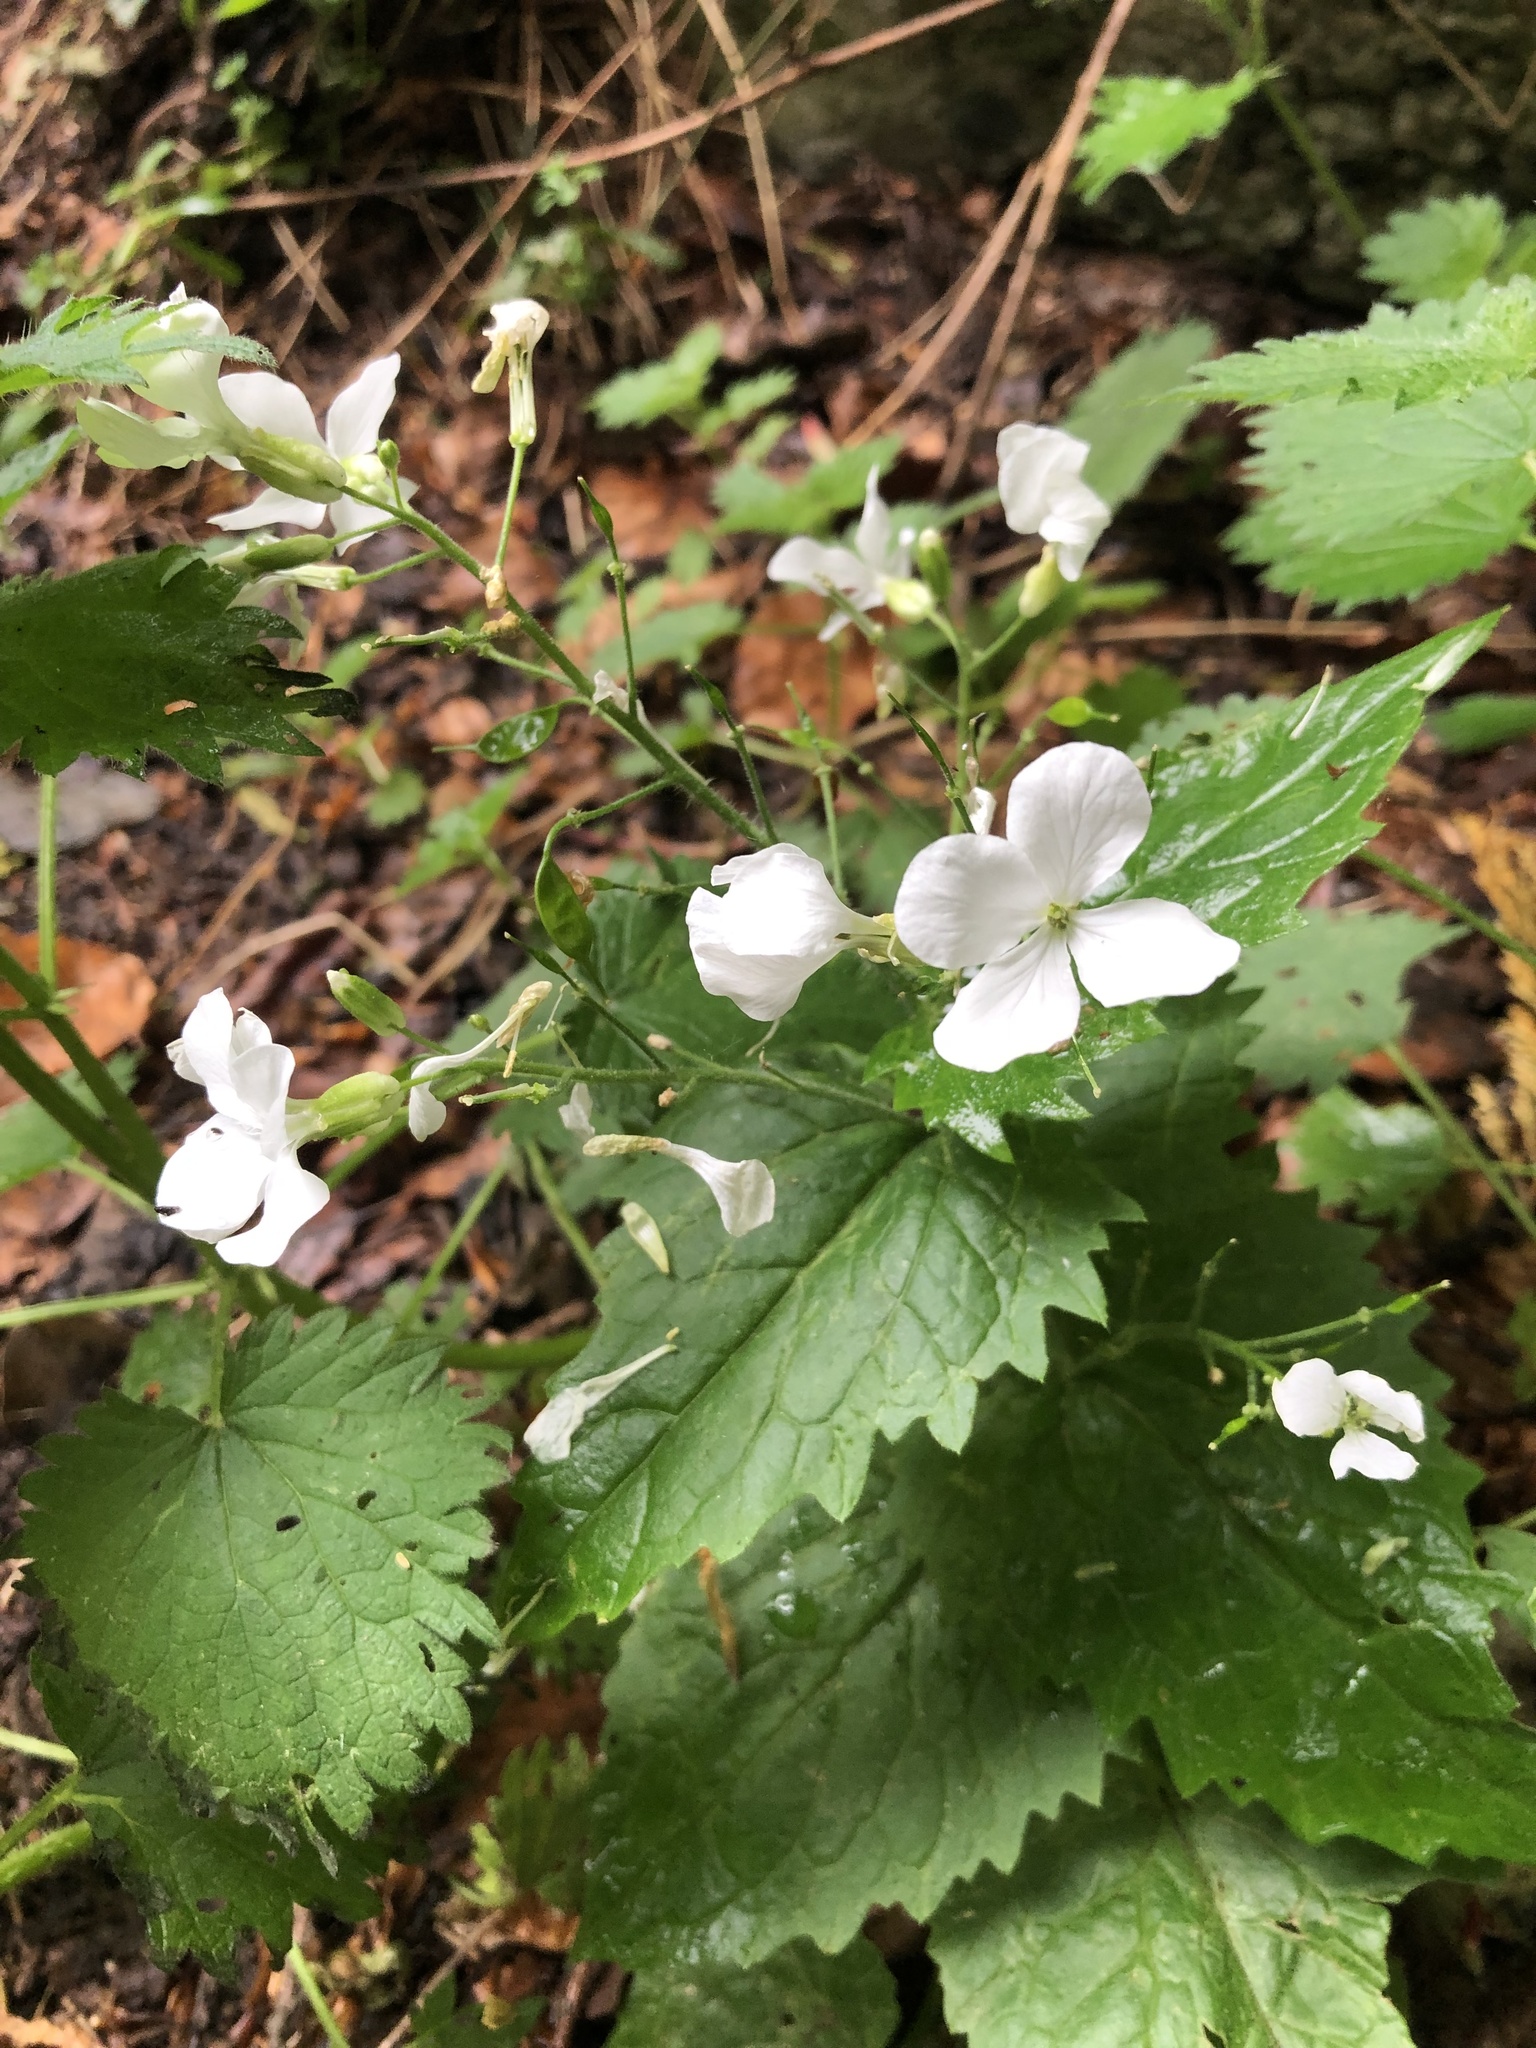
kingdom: Plantae
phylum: Tracheophyta
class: Magnoliopsida
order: Brassicales
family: Brassicaceae
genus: Lunaria
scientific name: Lunaria annua
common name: Honesty
